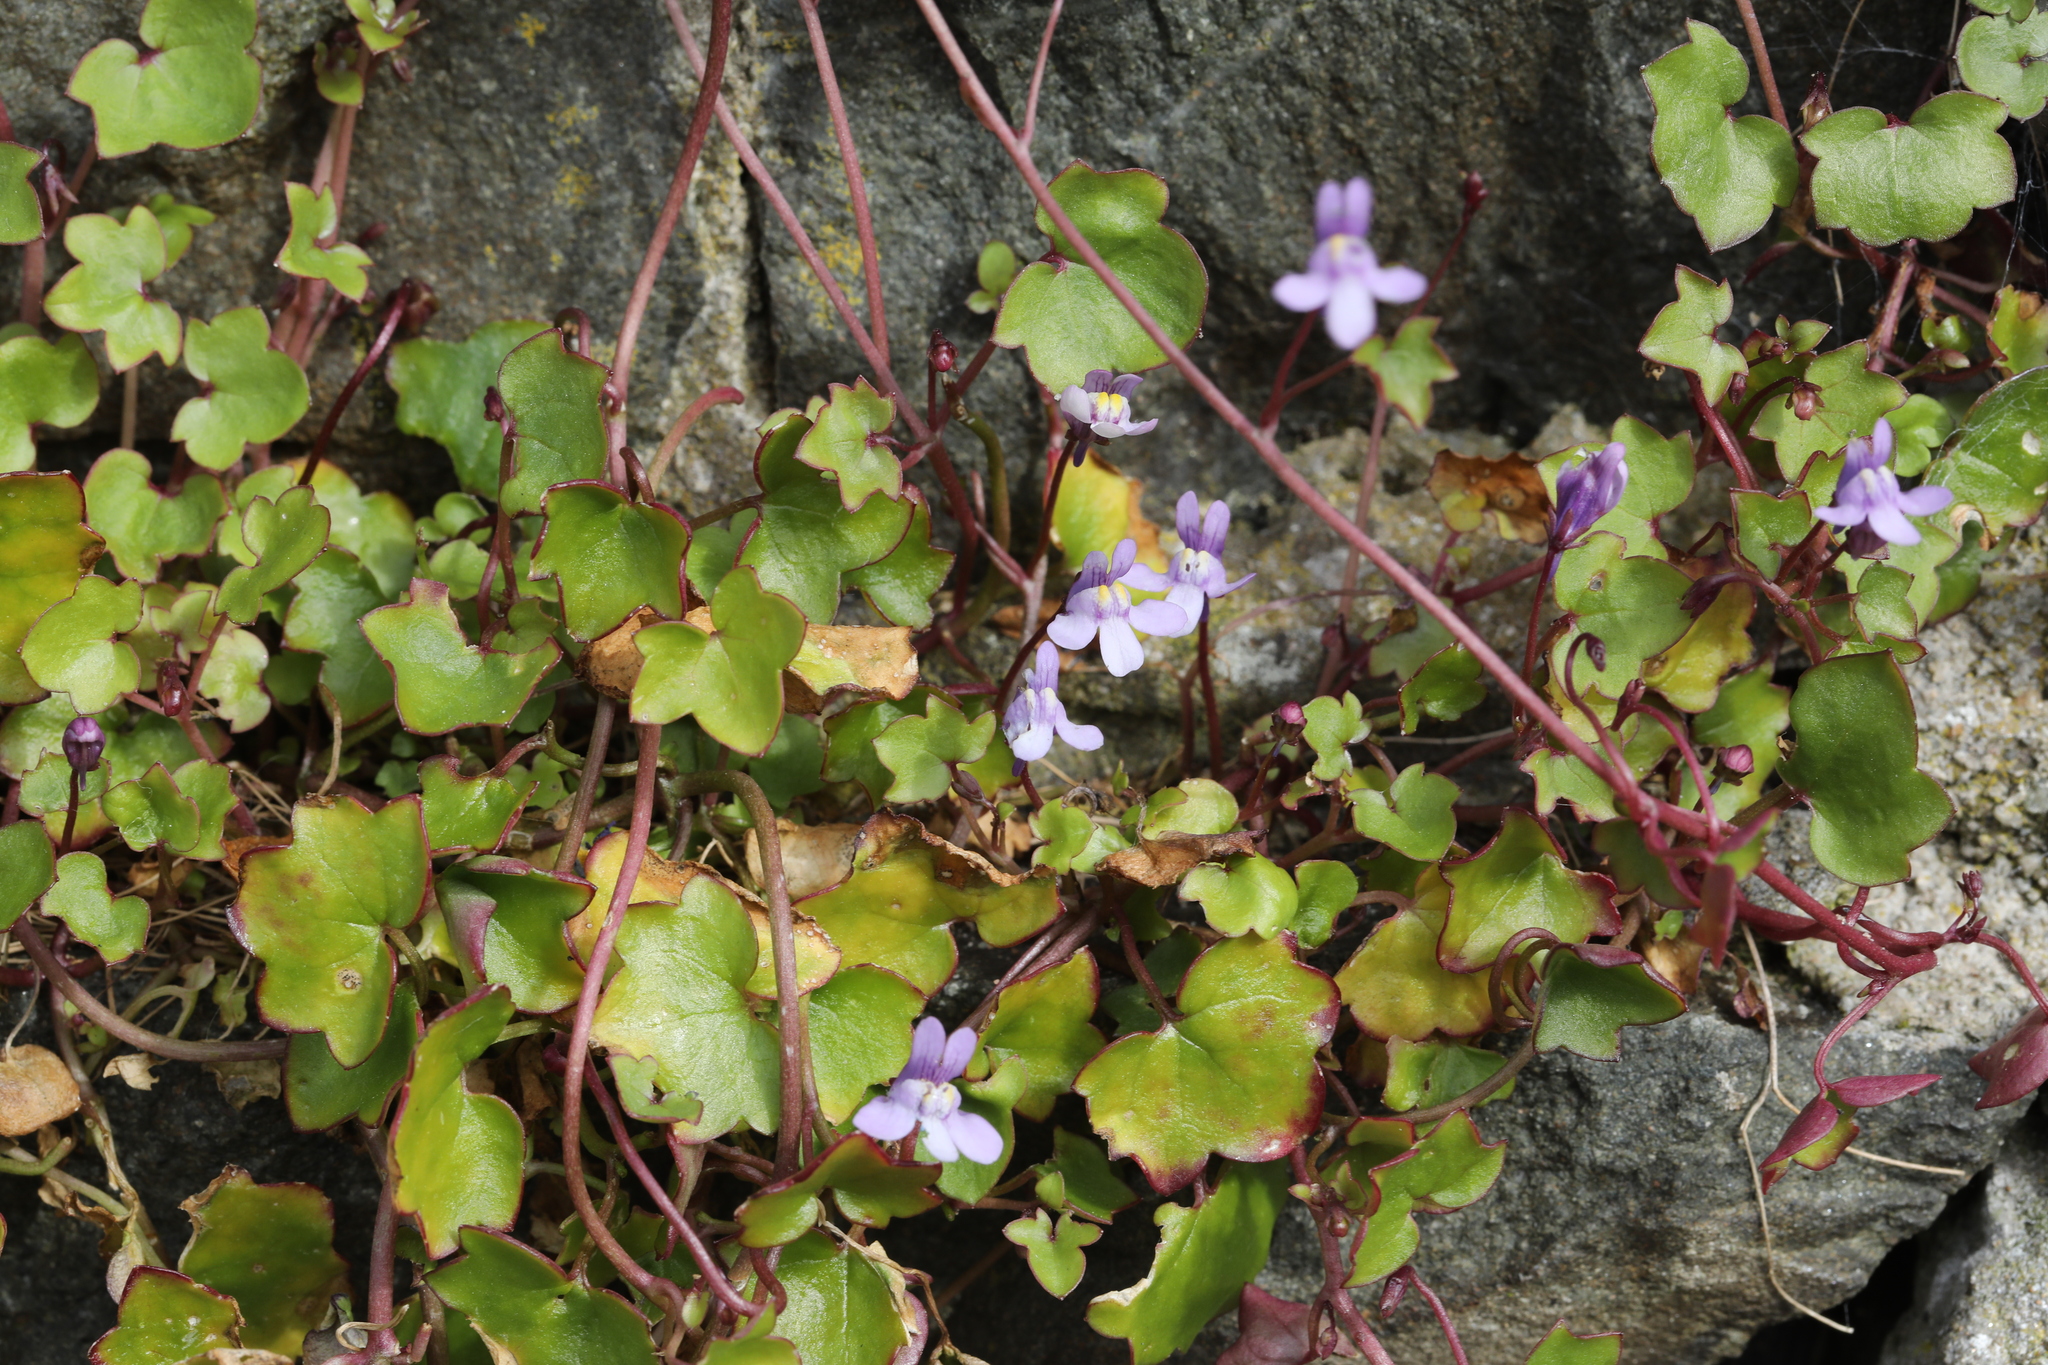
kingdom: Plantae
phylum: Tracheophyta
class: Magnoliopsida
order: Lamiales
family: Plantaginaceae
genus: Cymbalaria
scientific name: Cymbalaria muralis
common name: Ivy-leaved toadflax
